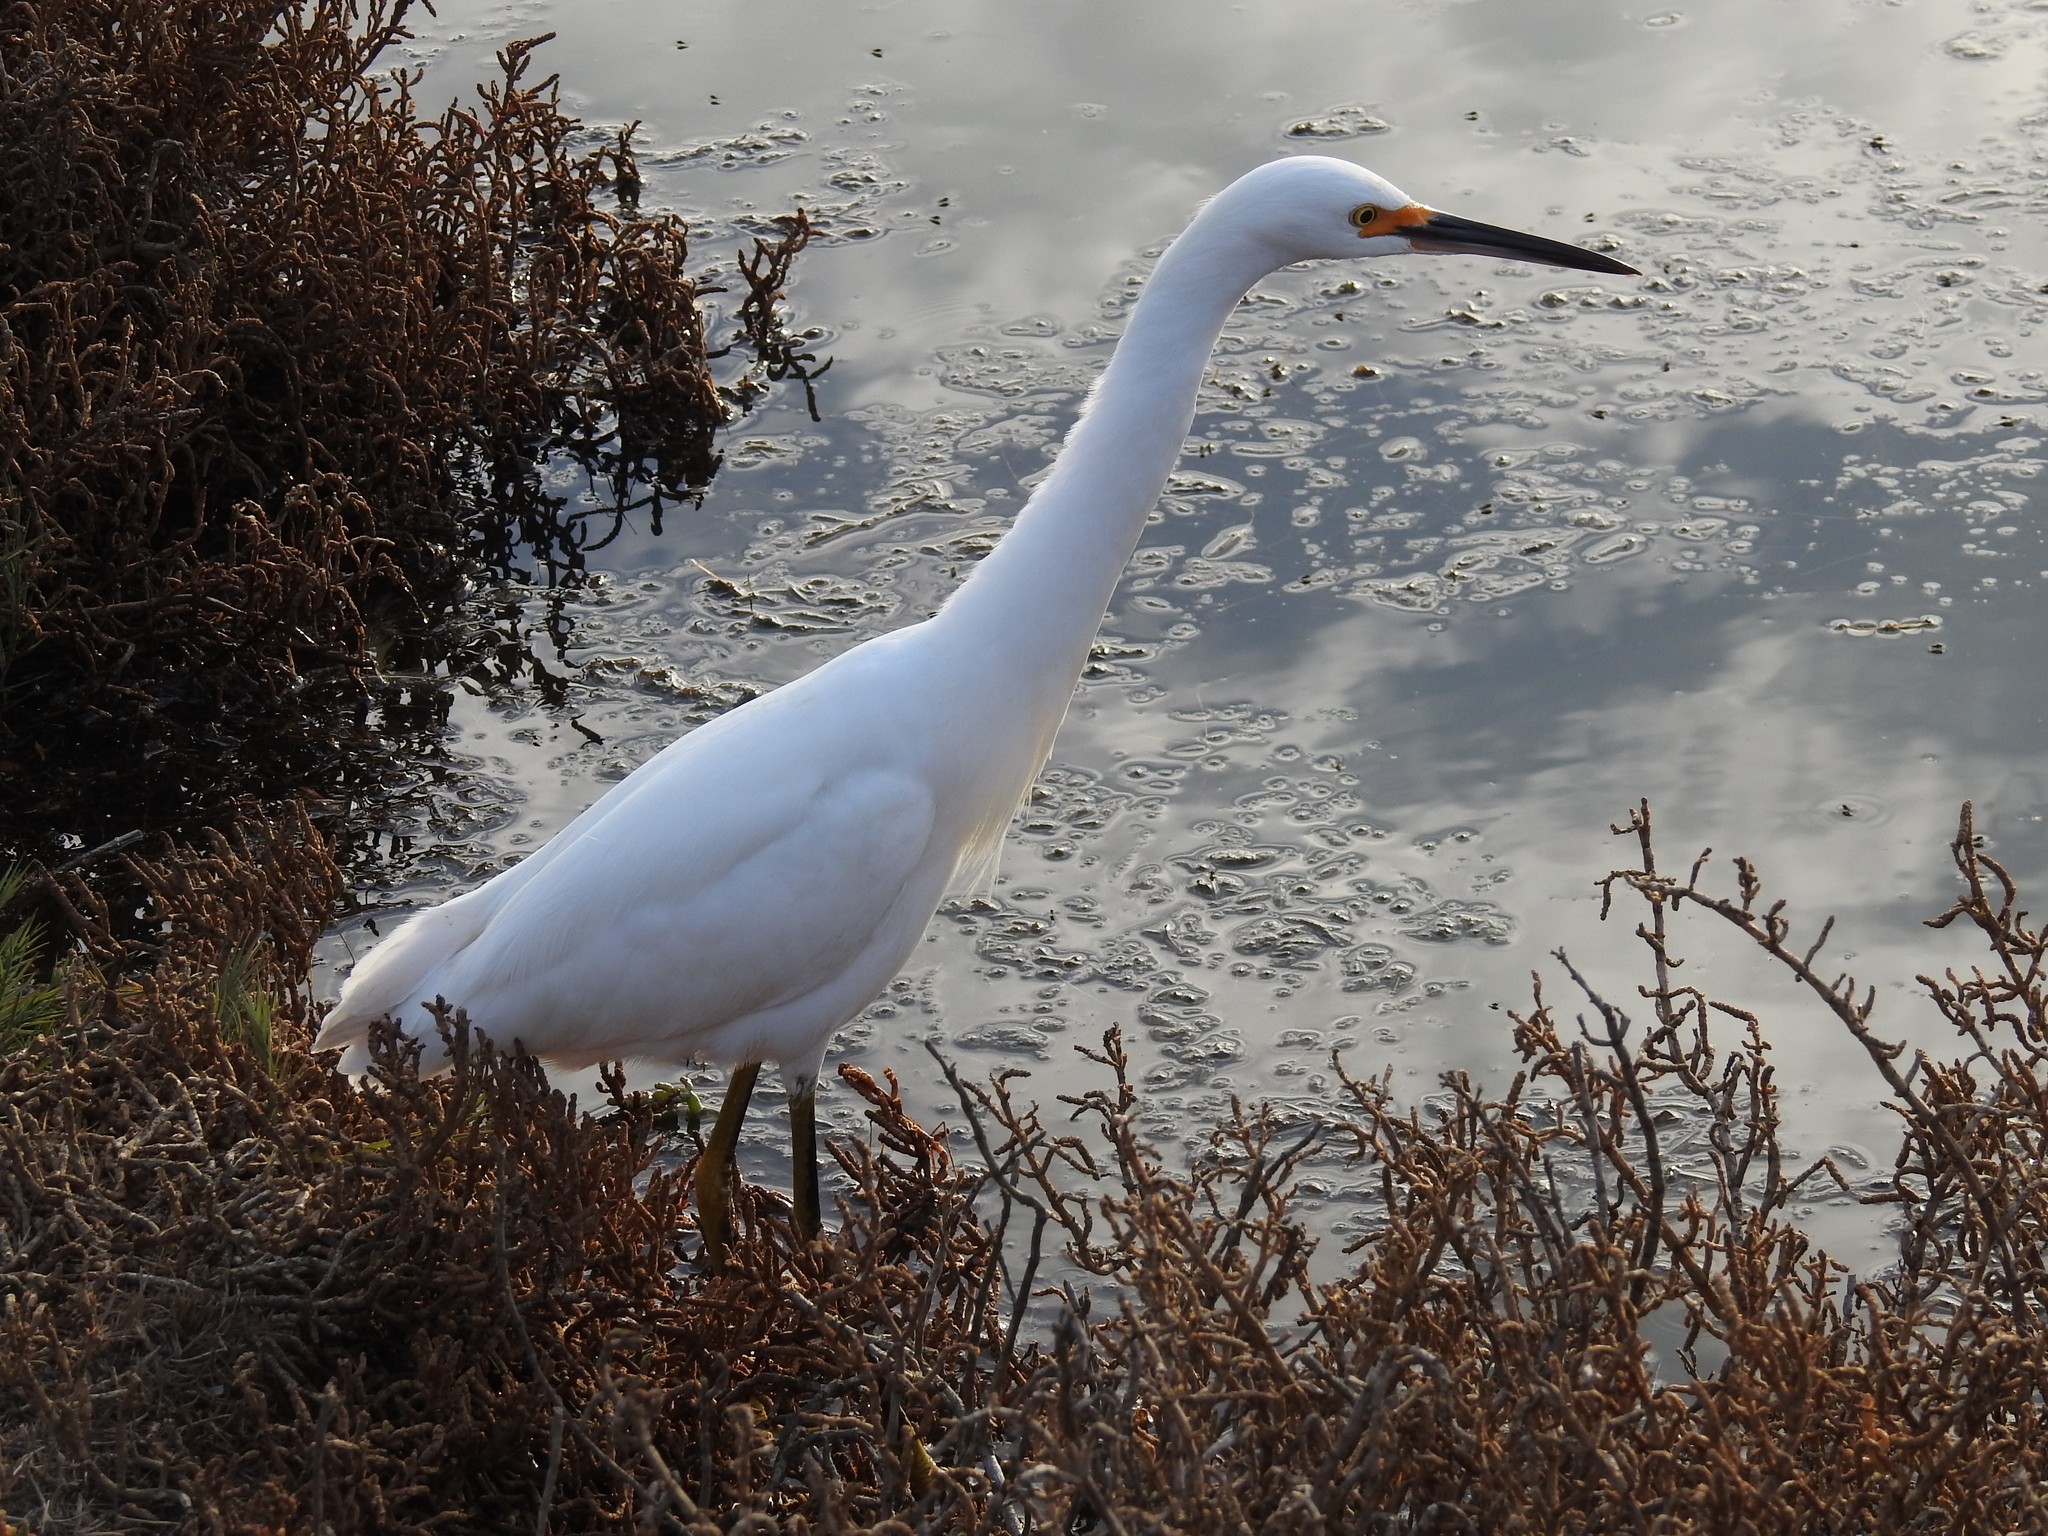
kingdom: Animalia
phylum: Chordata
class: Aves
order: Pelecaniformes
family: Ardeidae
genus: Egretta
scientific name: Egretta thula
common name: Snowy egret
